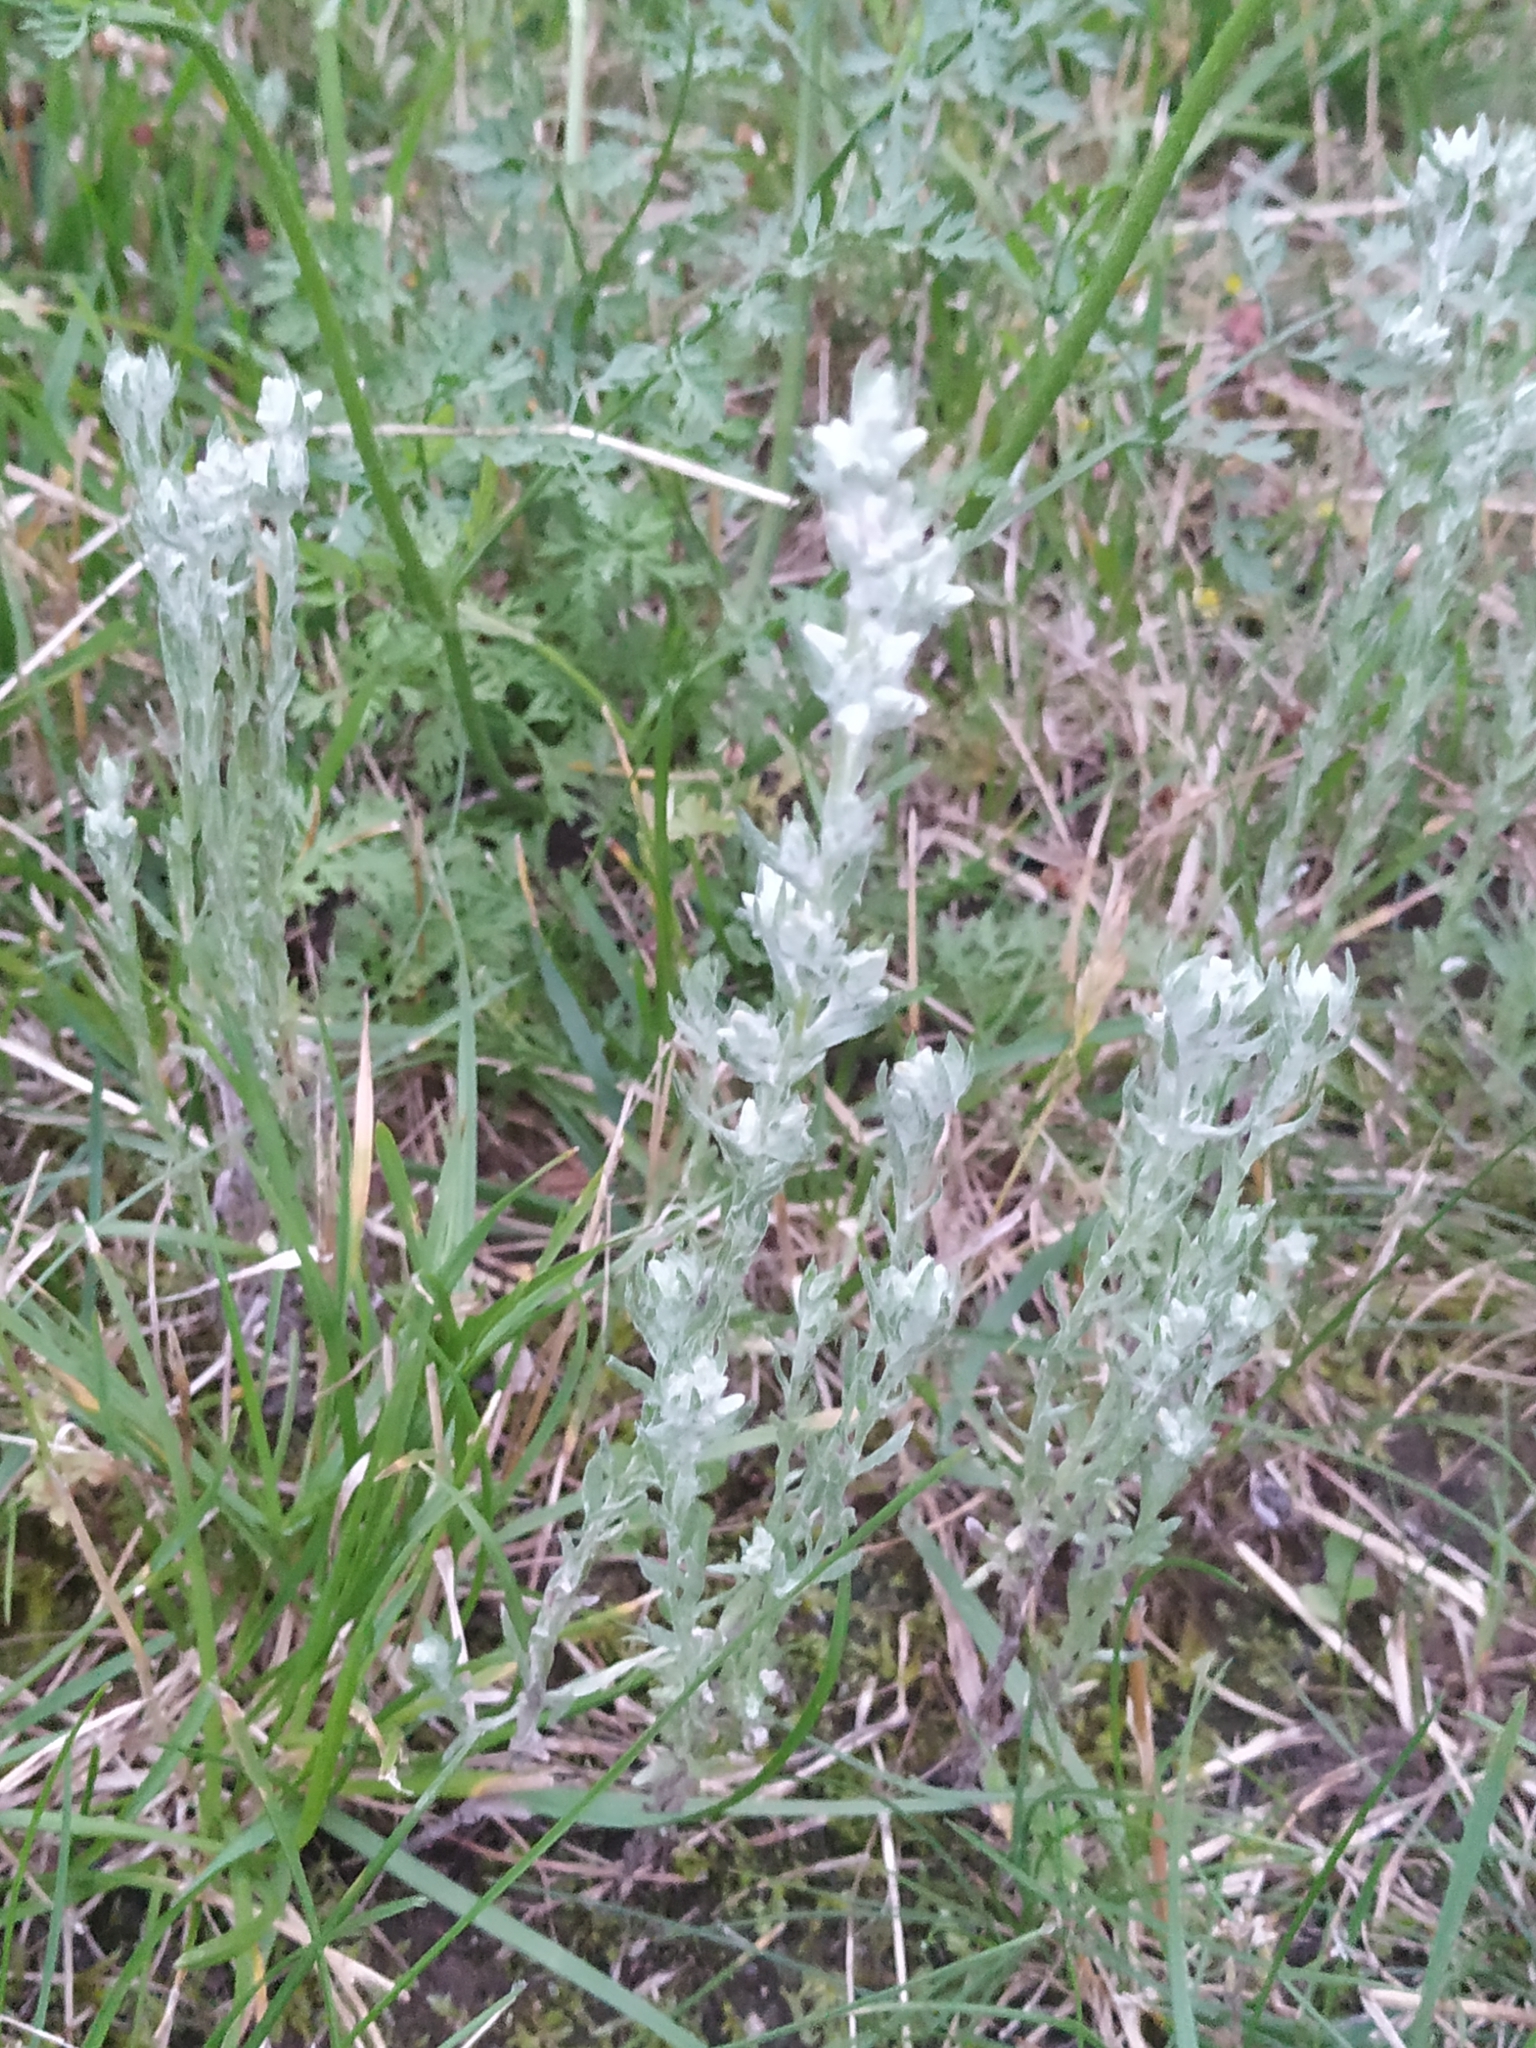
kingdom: Plantae
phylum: Tracheophyta
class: Magnoliopsida
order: Asterales
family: Asteraceae
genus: Filago
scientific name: Filago arvensis
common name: Field cudweed
